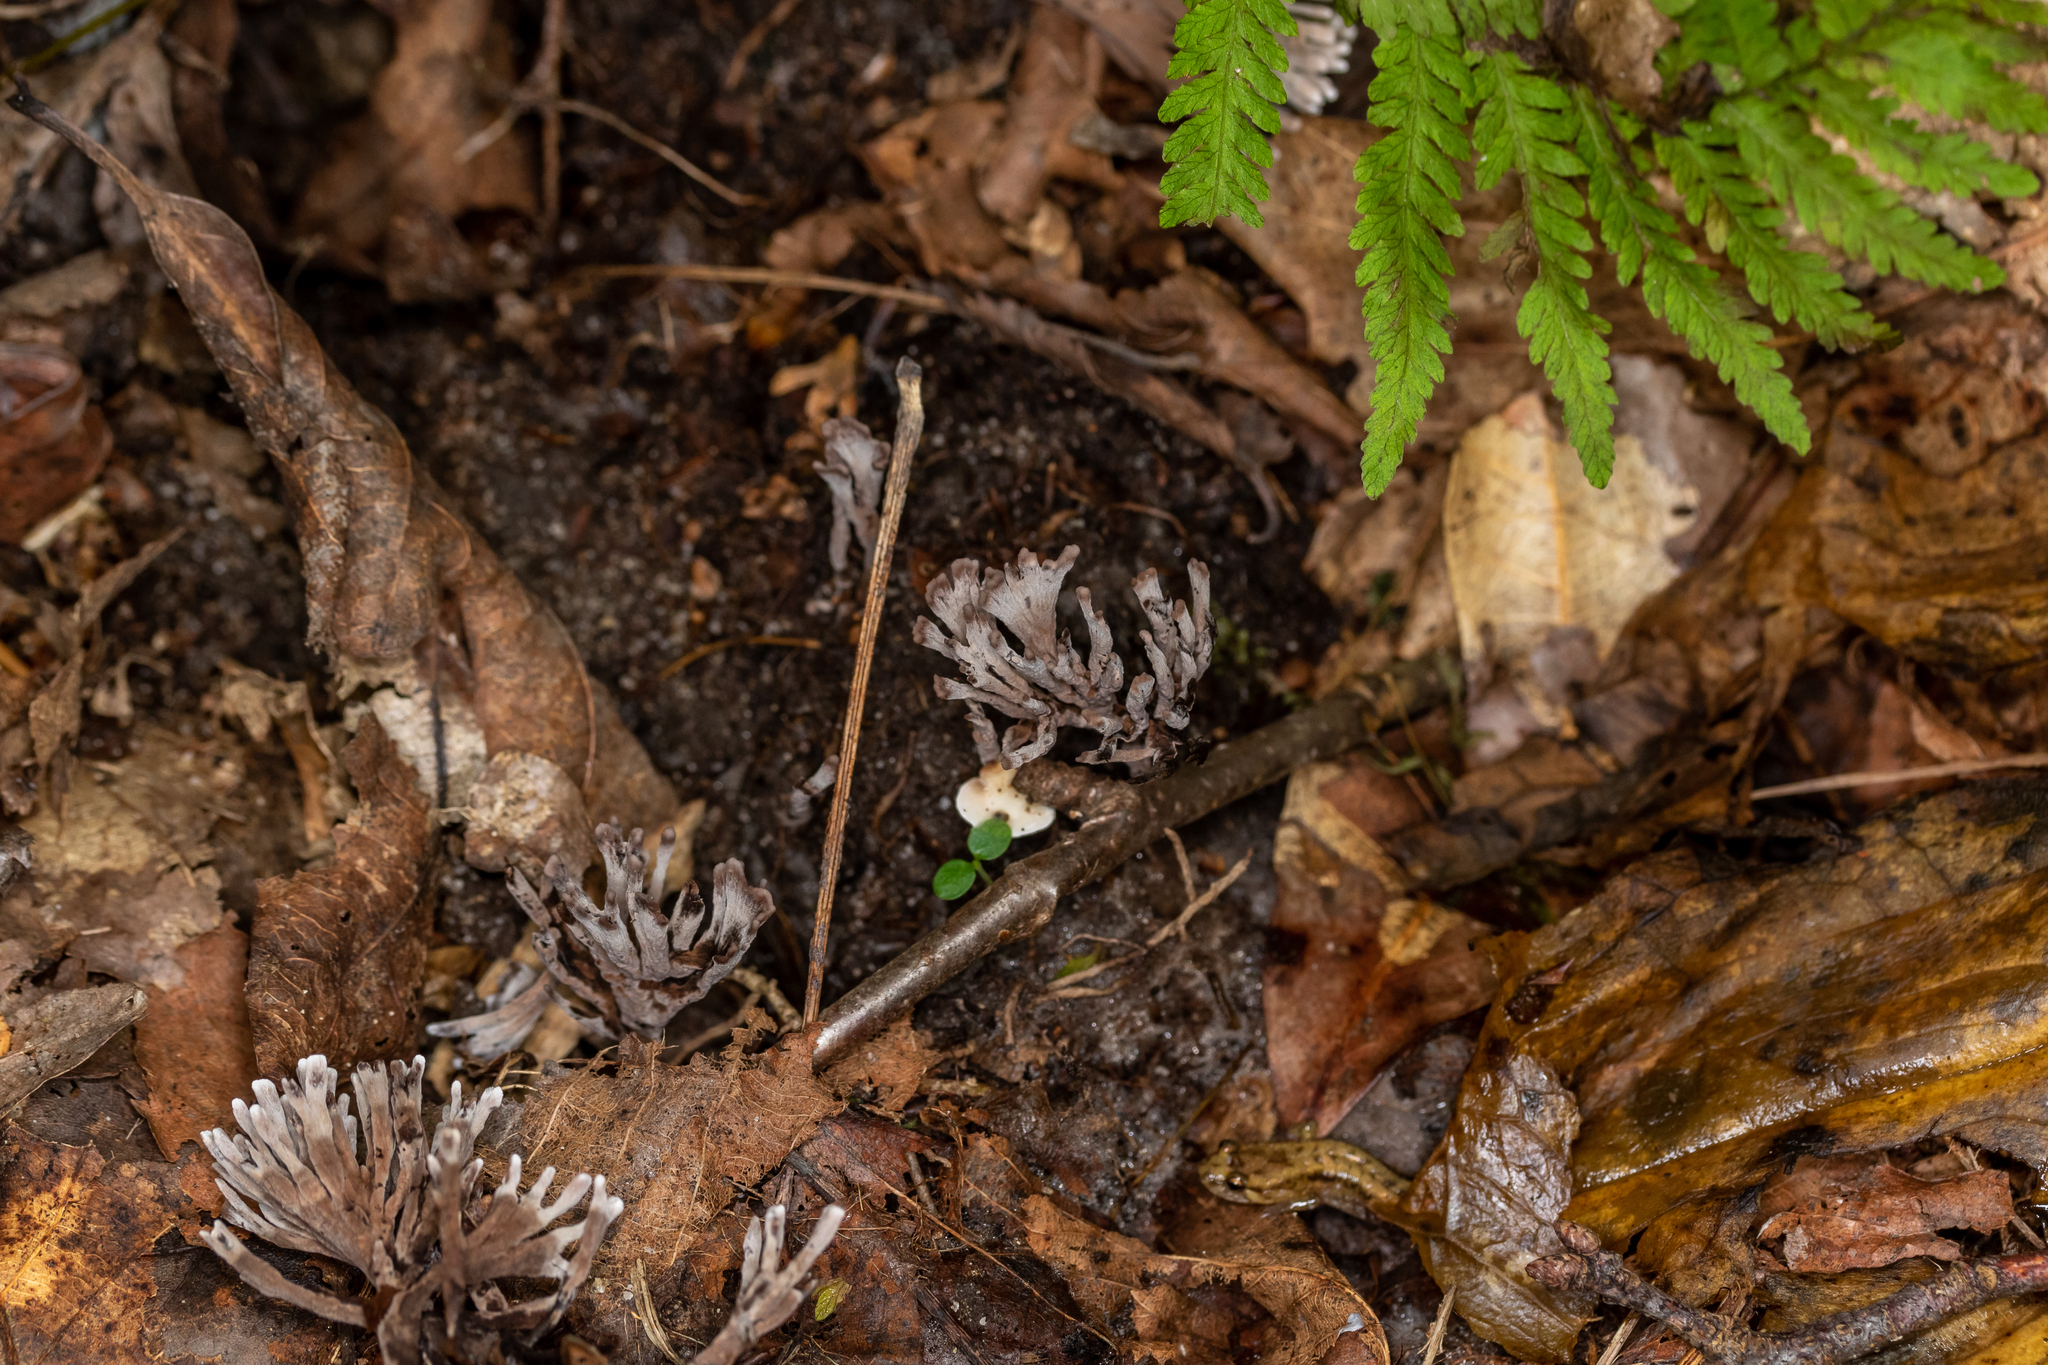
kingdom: Fungi
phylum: Basidiomycota
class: Agaricomycetes
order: Thelephorales
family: Thelephoraceae
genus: Thelephora
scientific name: Thelephora anthocephala
